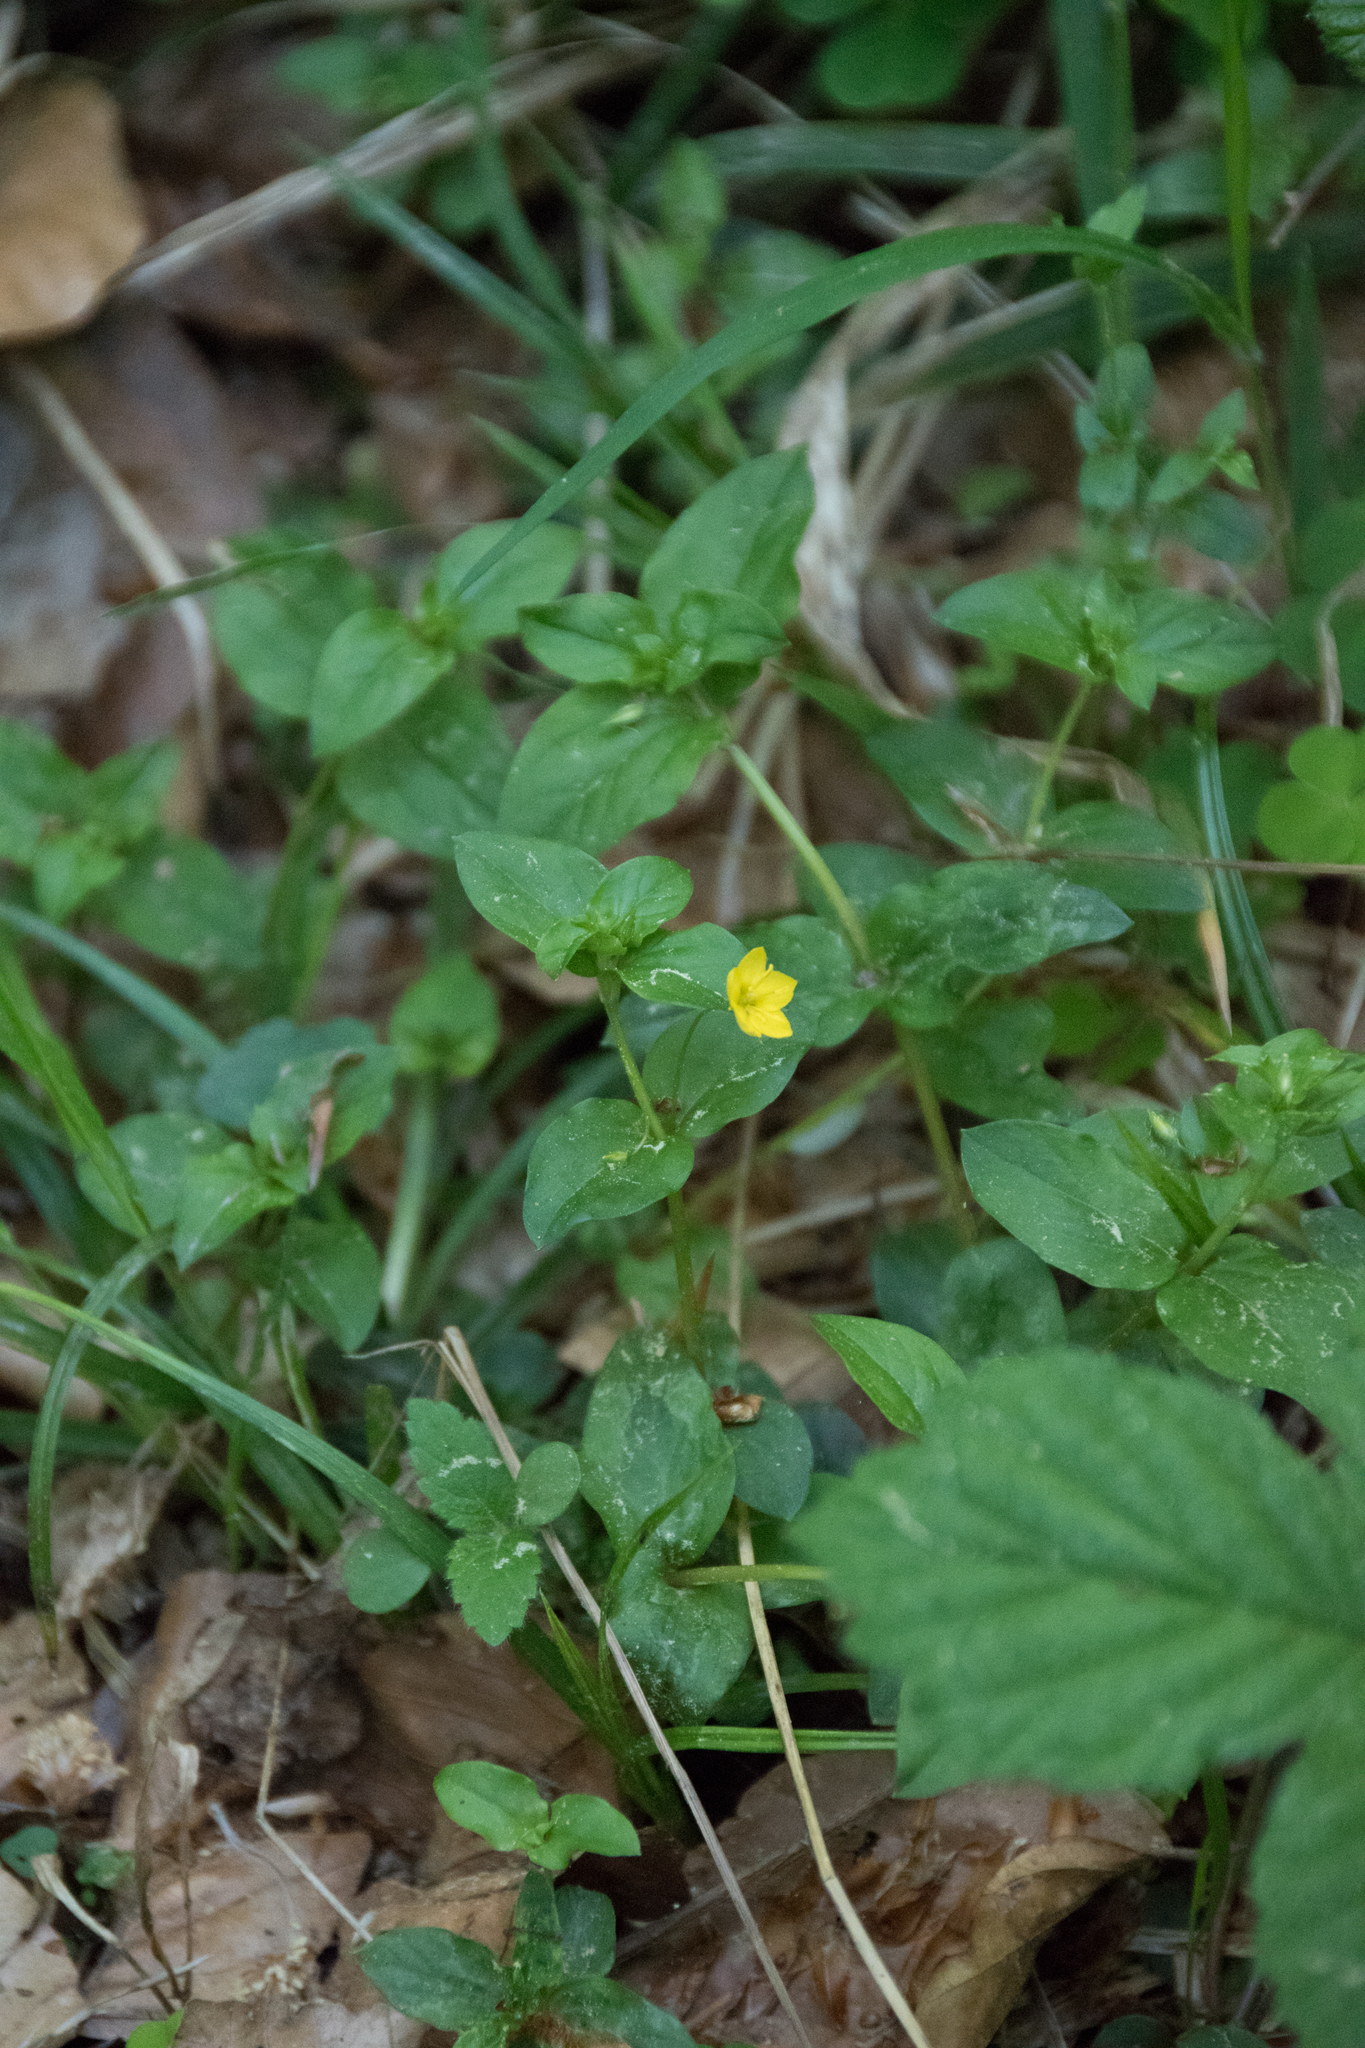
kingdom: Plantae
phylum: Tracheophyta
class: Magnoliopsida
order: Ericales
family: Primulaceae
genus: Lysimachia
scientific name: Lysimachia nemorum
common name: Yellow pimpernel
